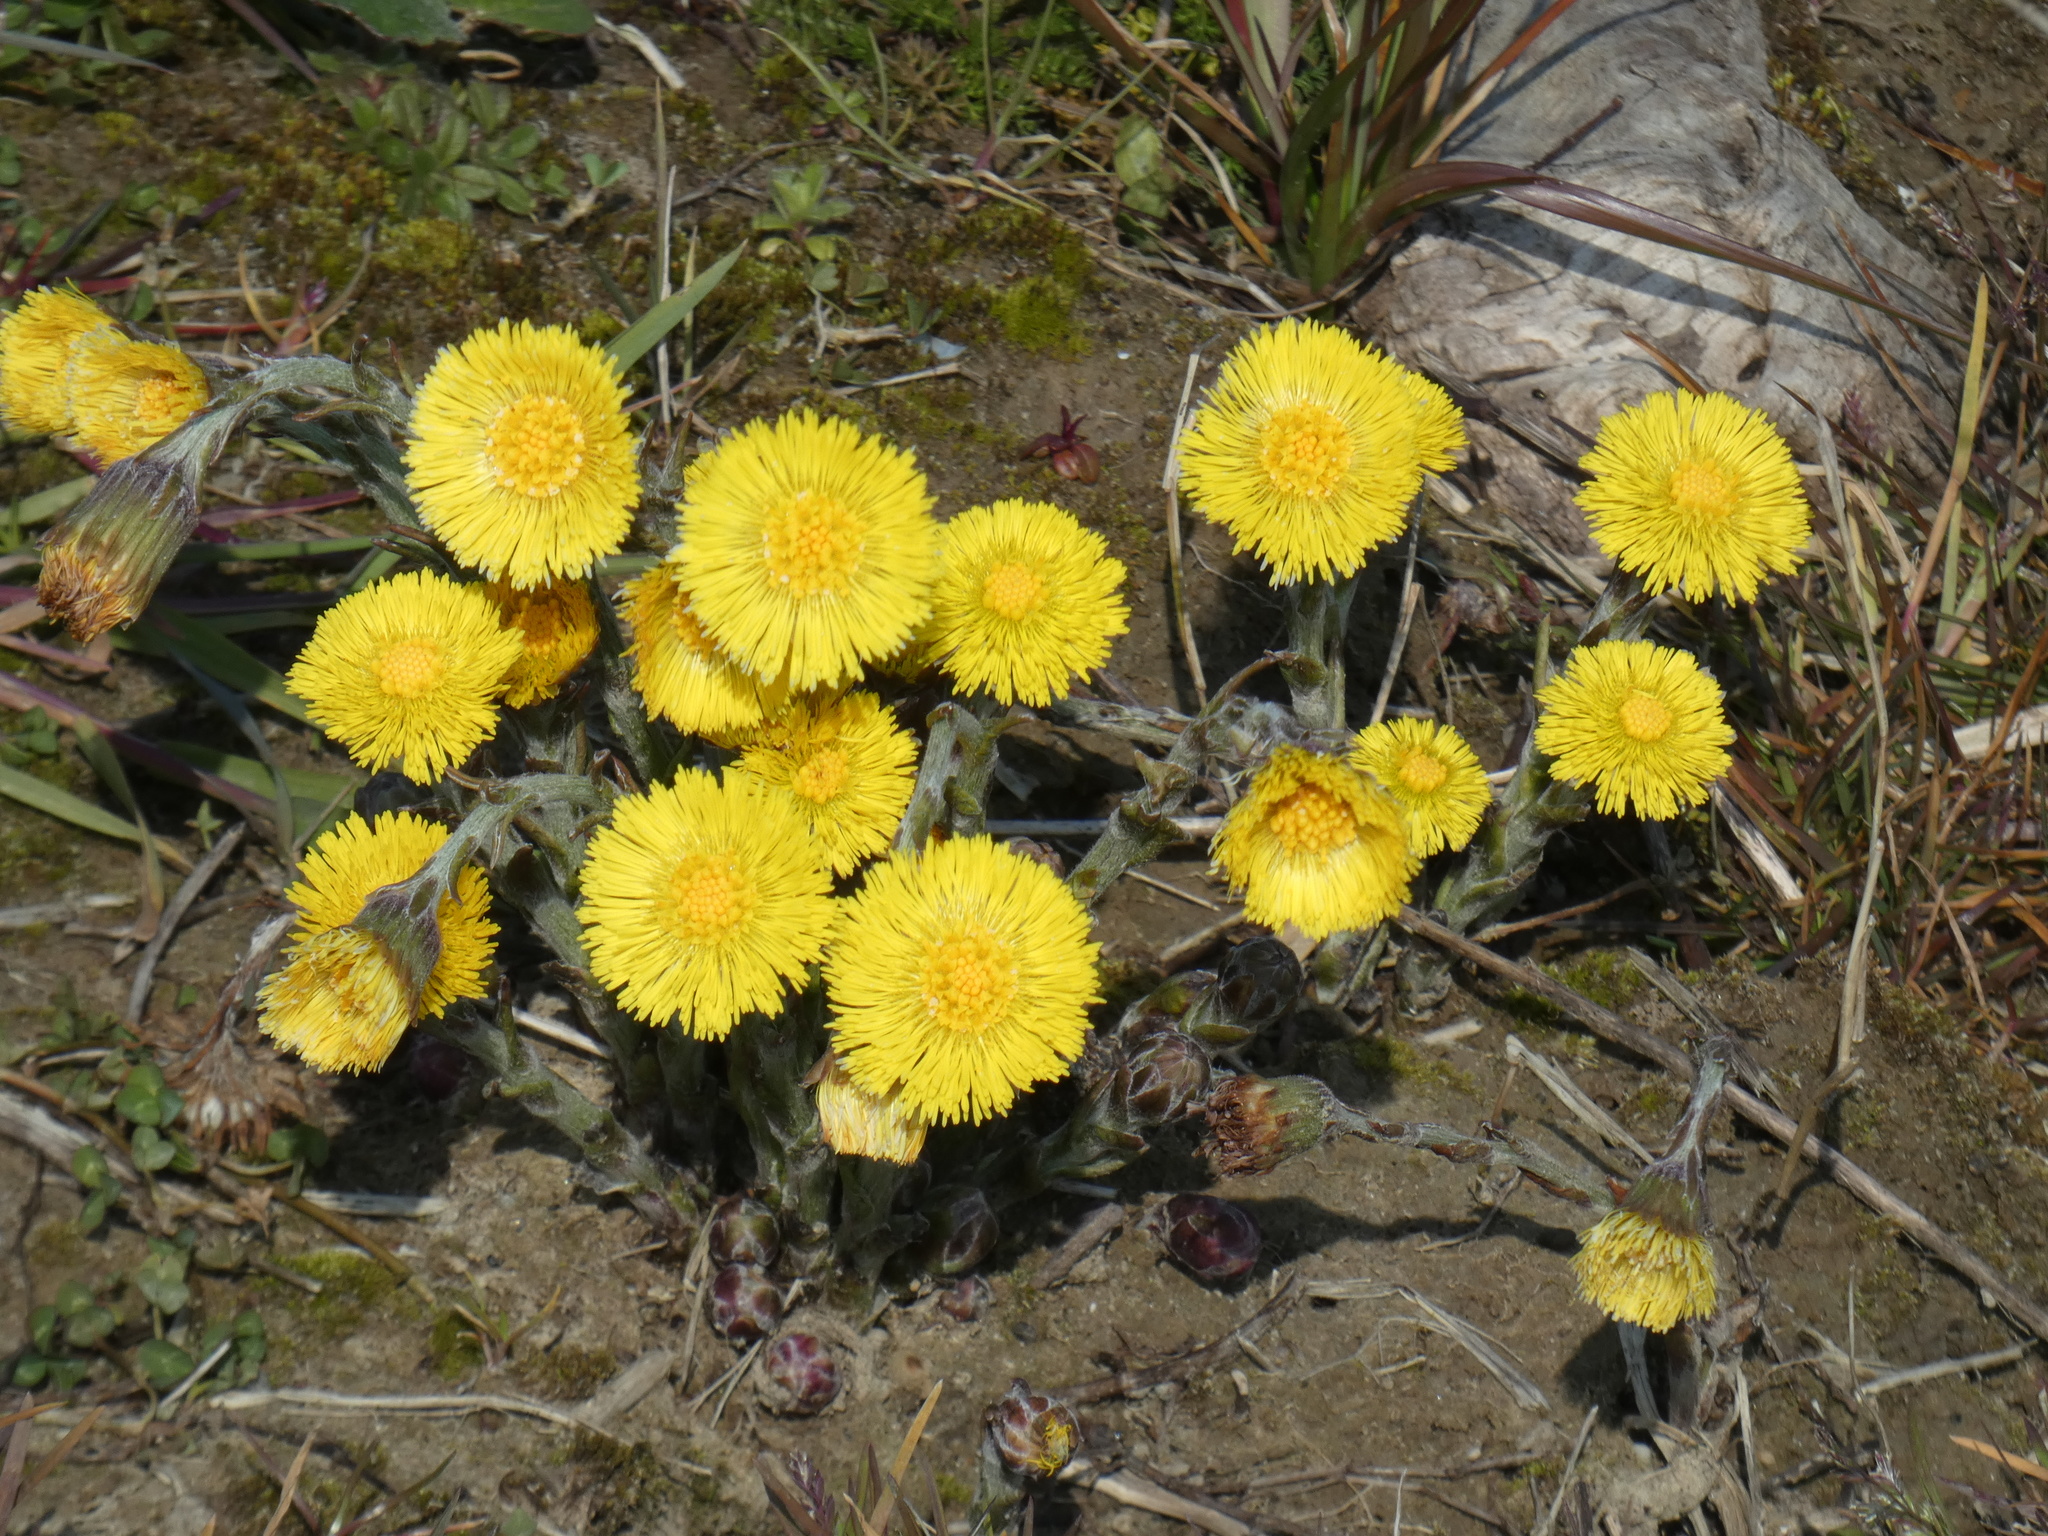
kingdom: Plantae
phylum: Tracheophyta
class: Magnoliopsida
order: Asterales
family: Asteraceae
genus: Tussilago
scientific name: Tussilago farfara
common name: Coltsfoot
